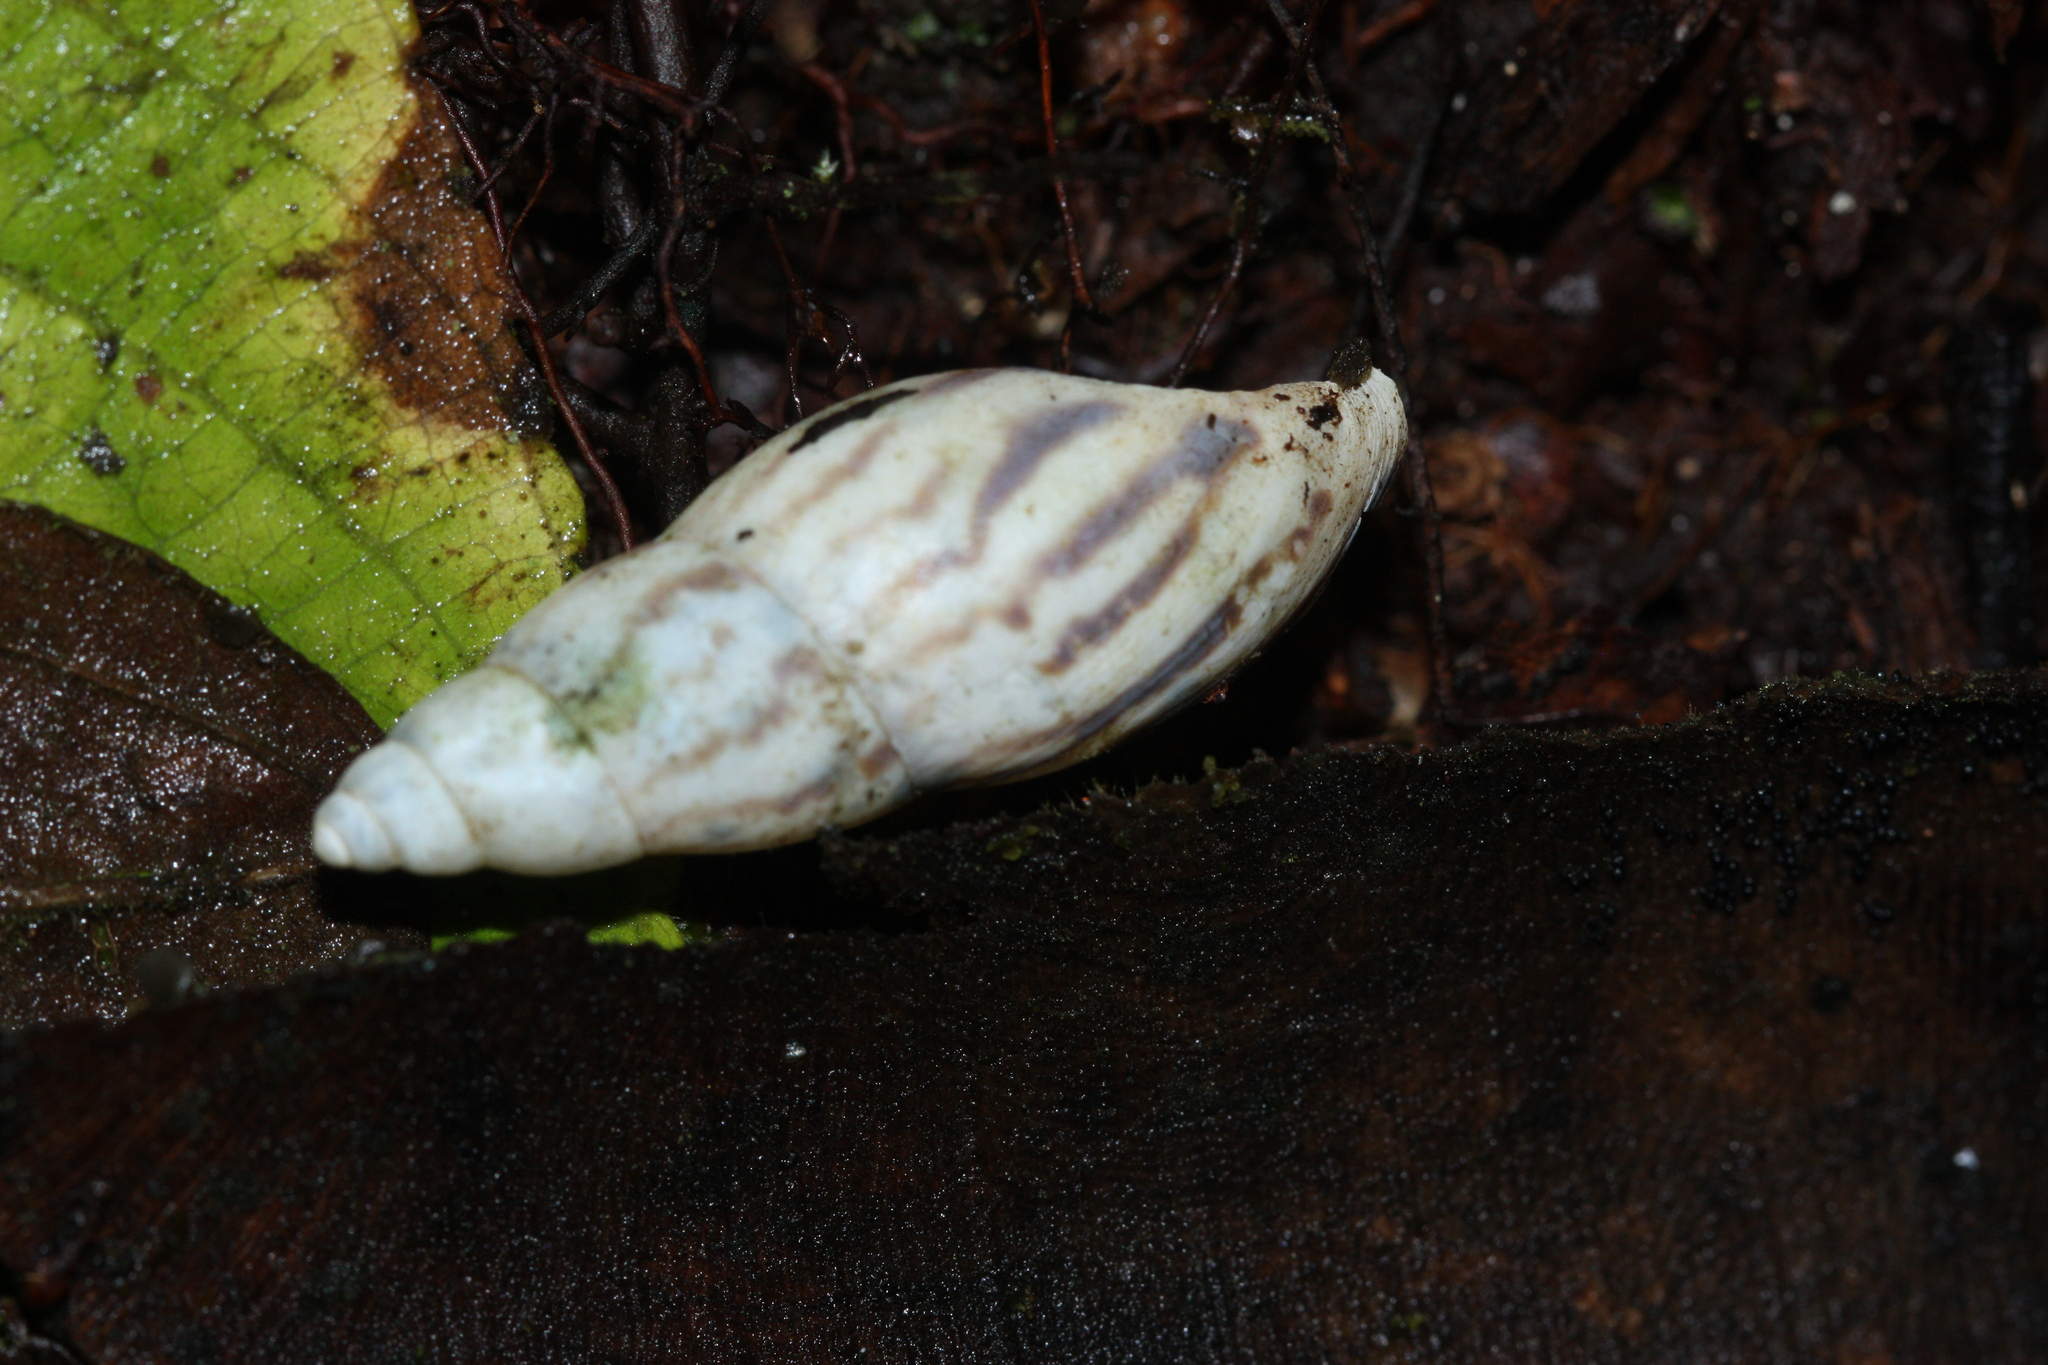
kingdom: Animalia
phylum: Mollusca
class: Gastropoda
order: Stylommatophora
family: Bulimulidae
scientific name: Bulimulidae
